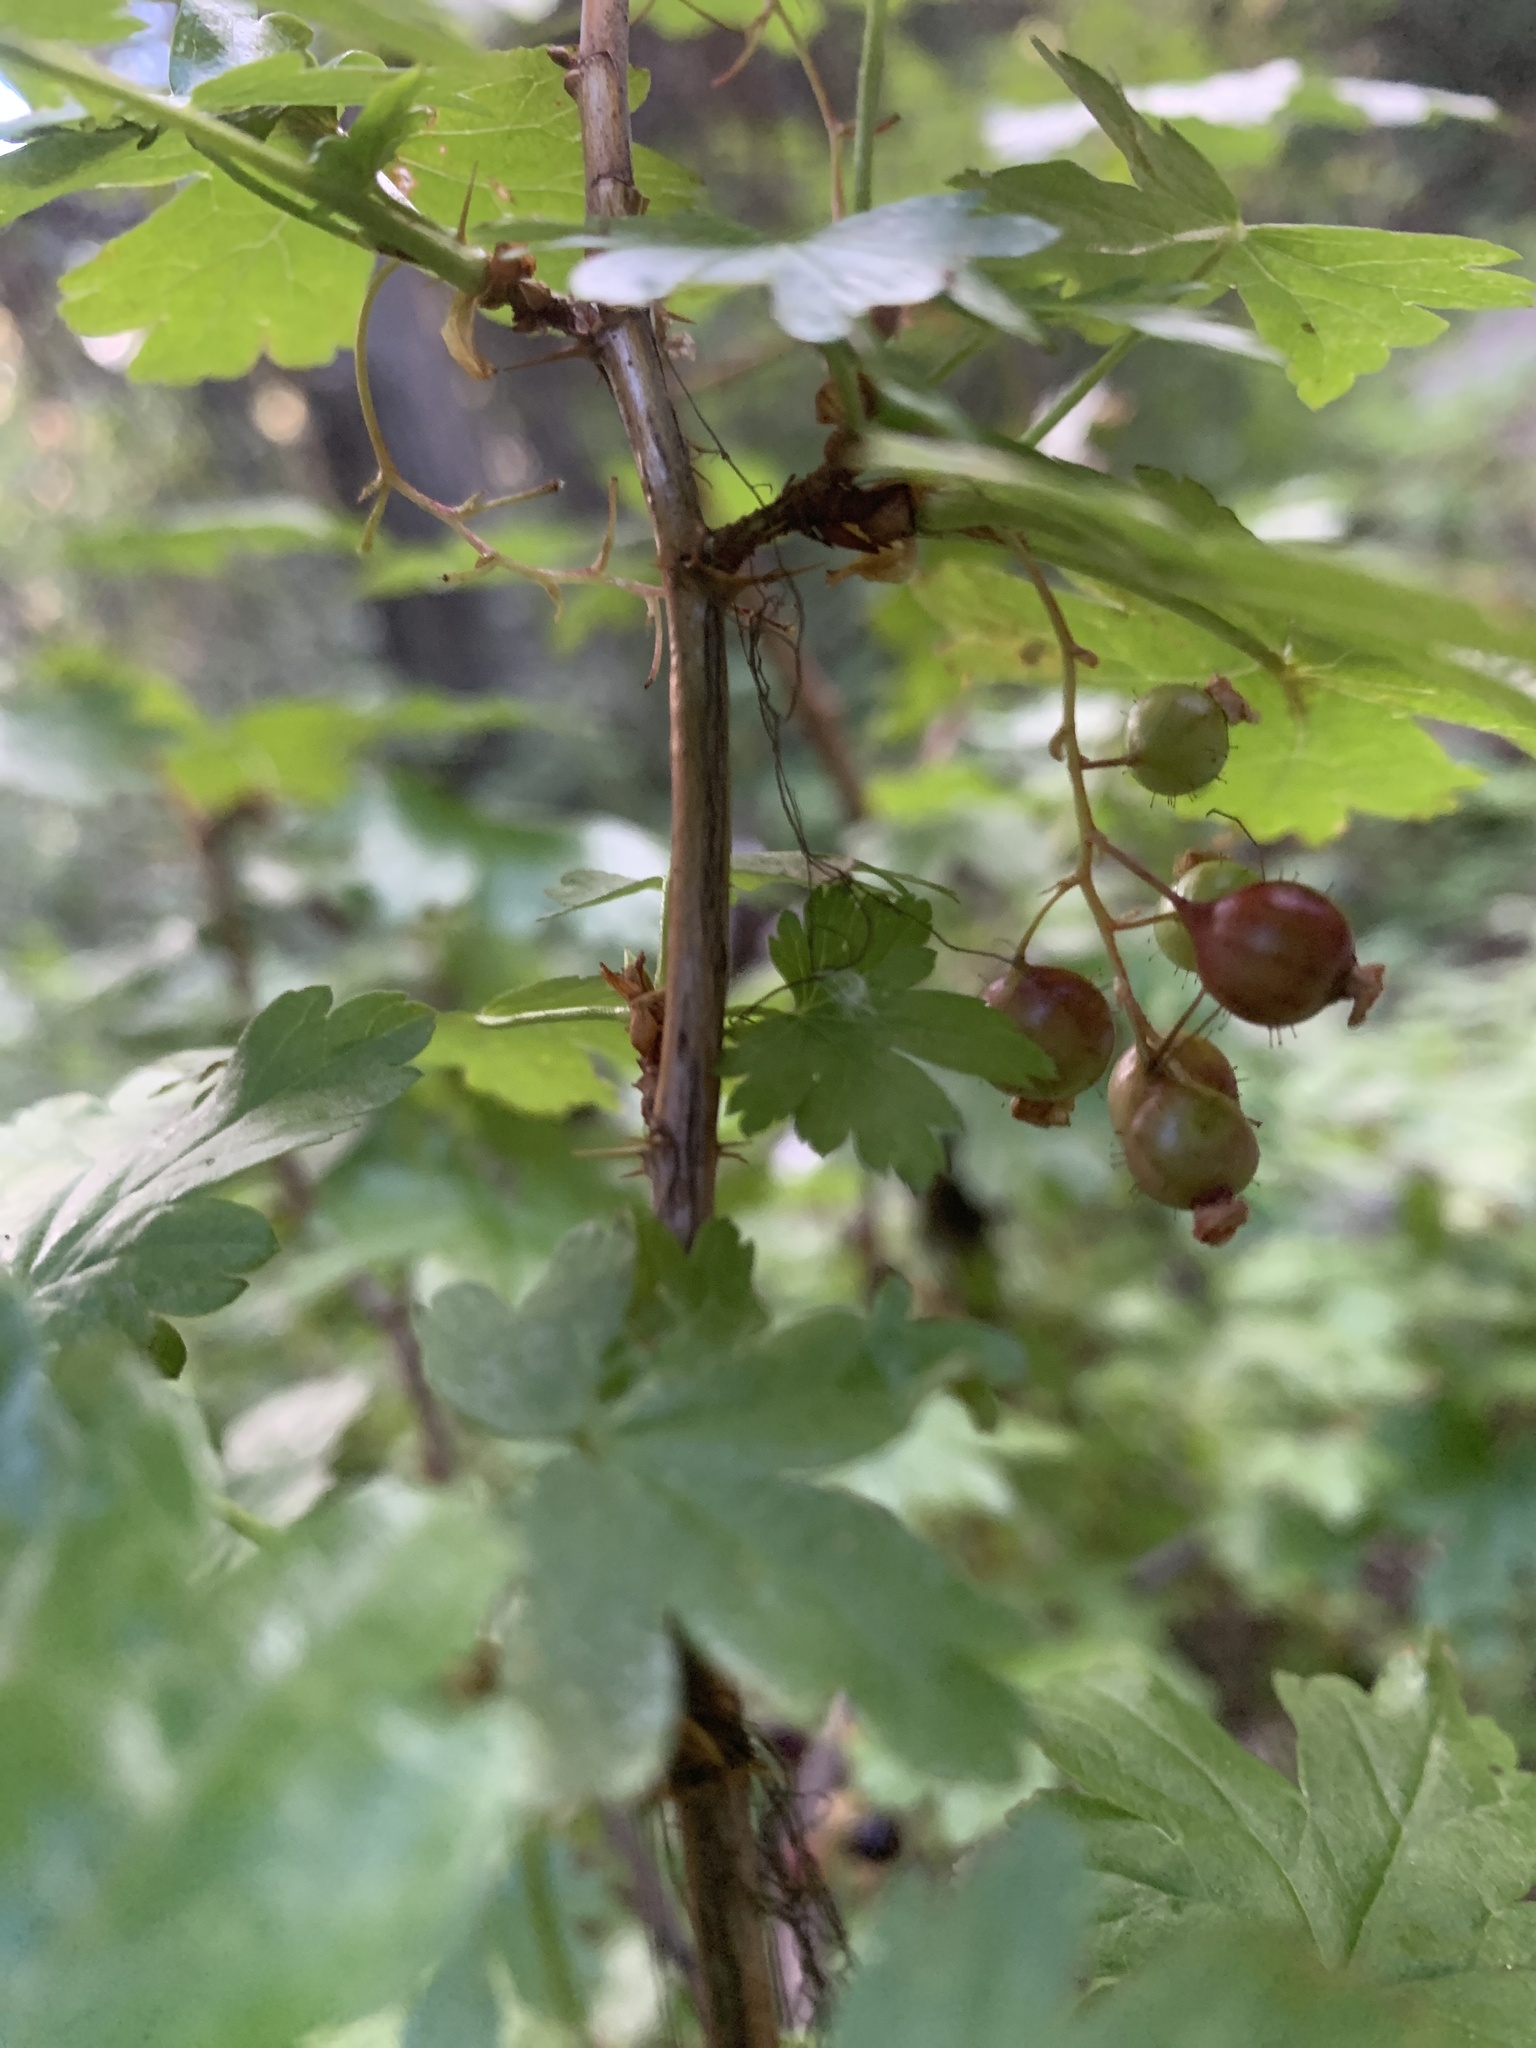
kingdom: Plantae
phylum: Tracheophyta
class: Magnoliopsida
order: Saxifragales
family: Grossulariaceae
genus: Ribes
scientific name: Ribes lacustre
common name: Black gooseberry
